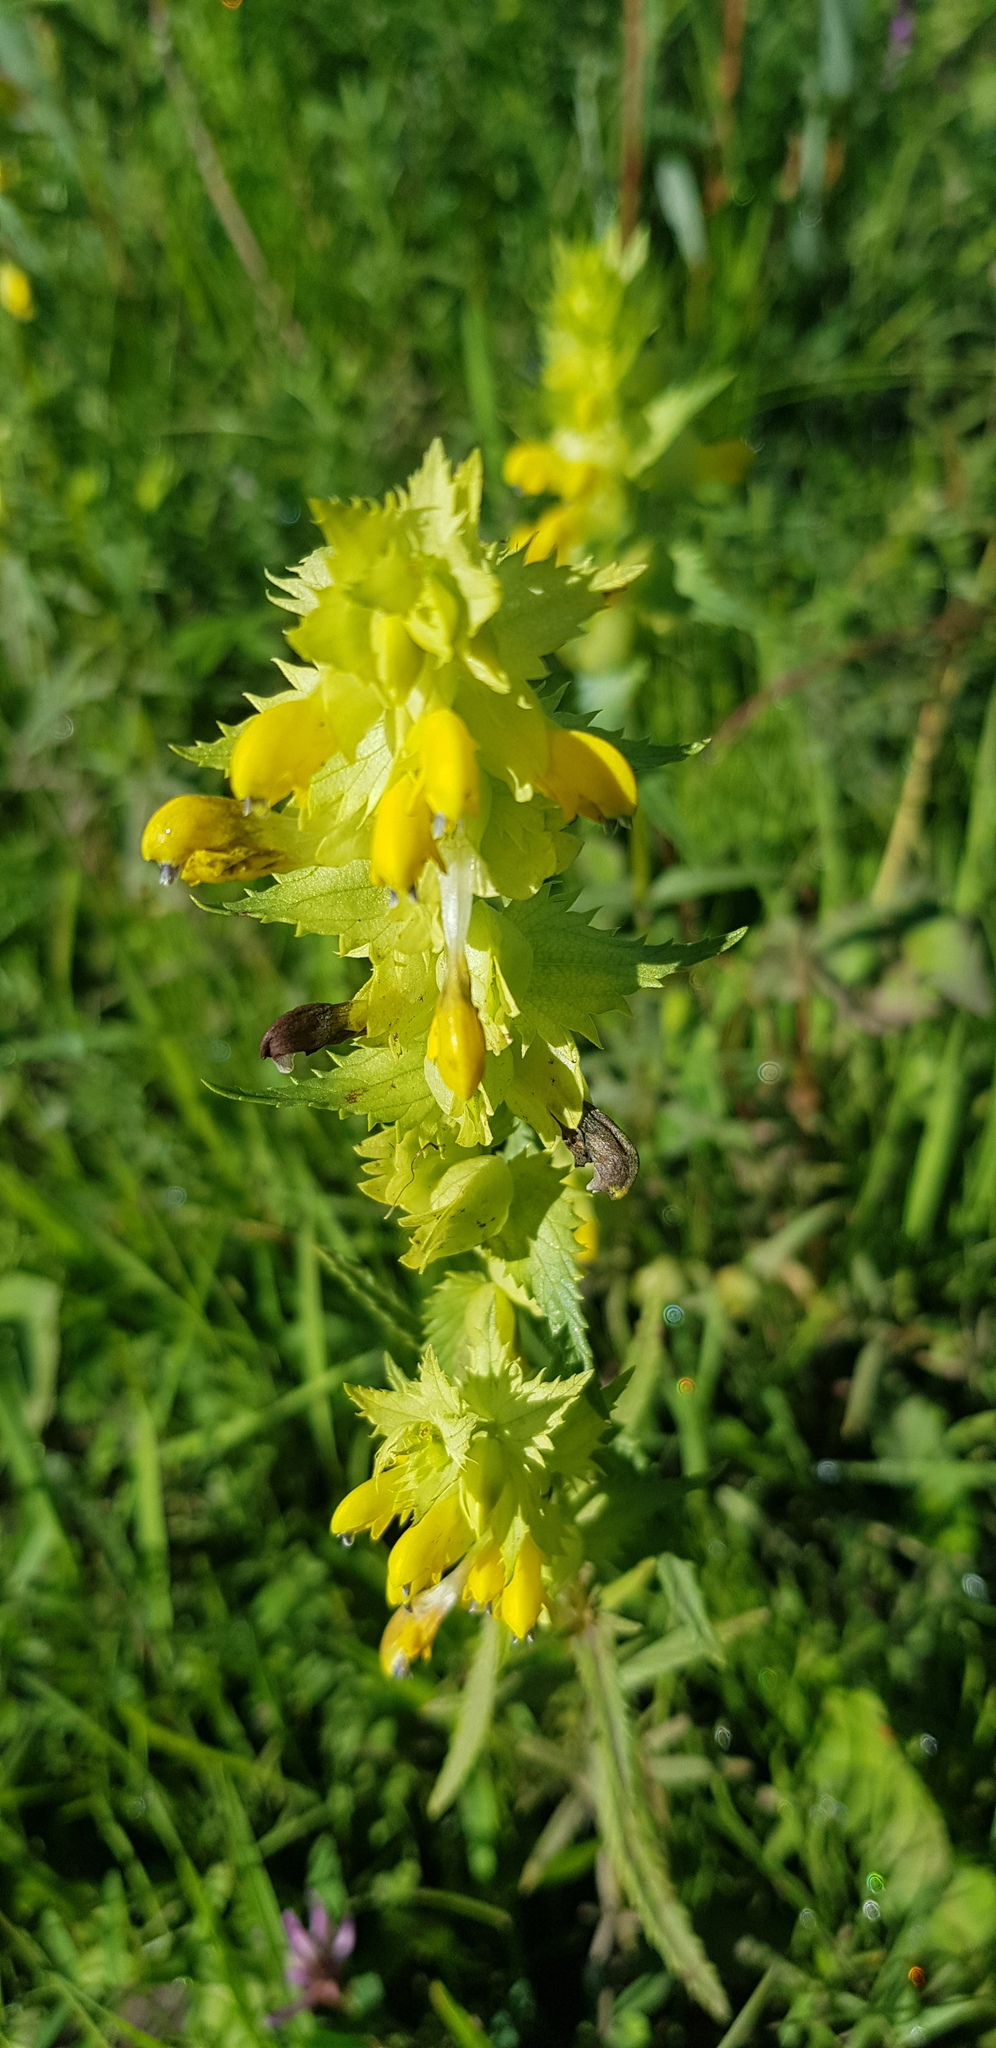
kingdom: Plantae
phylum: Tracheophyta
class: Magnoliopsida
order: Lamiales
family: Orobanchaceae
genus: Rhinanthus
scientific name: Rhinanthus songaricus
